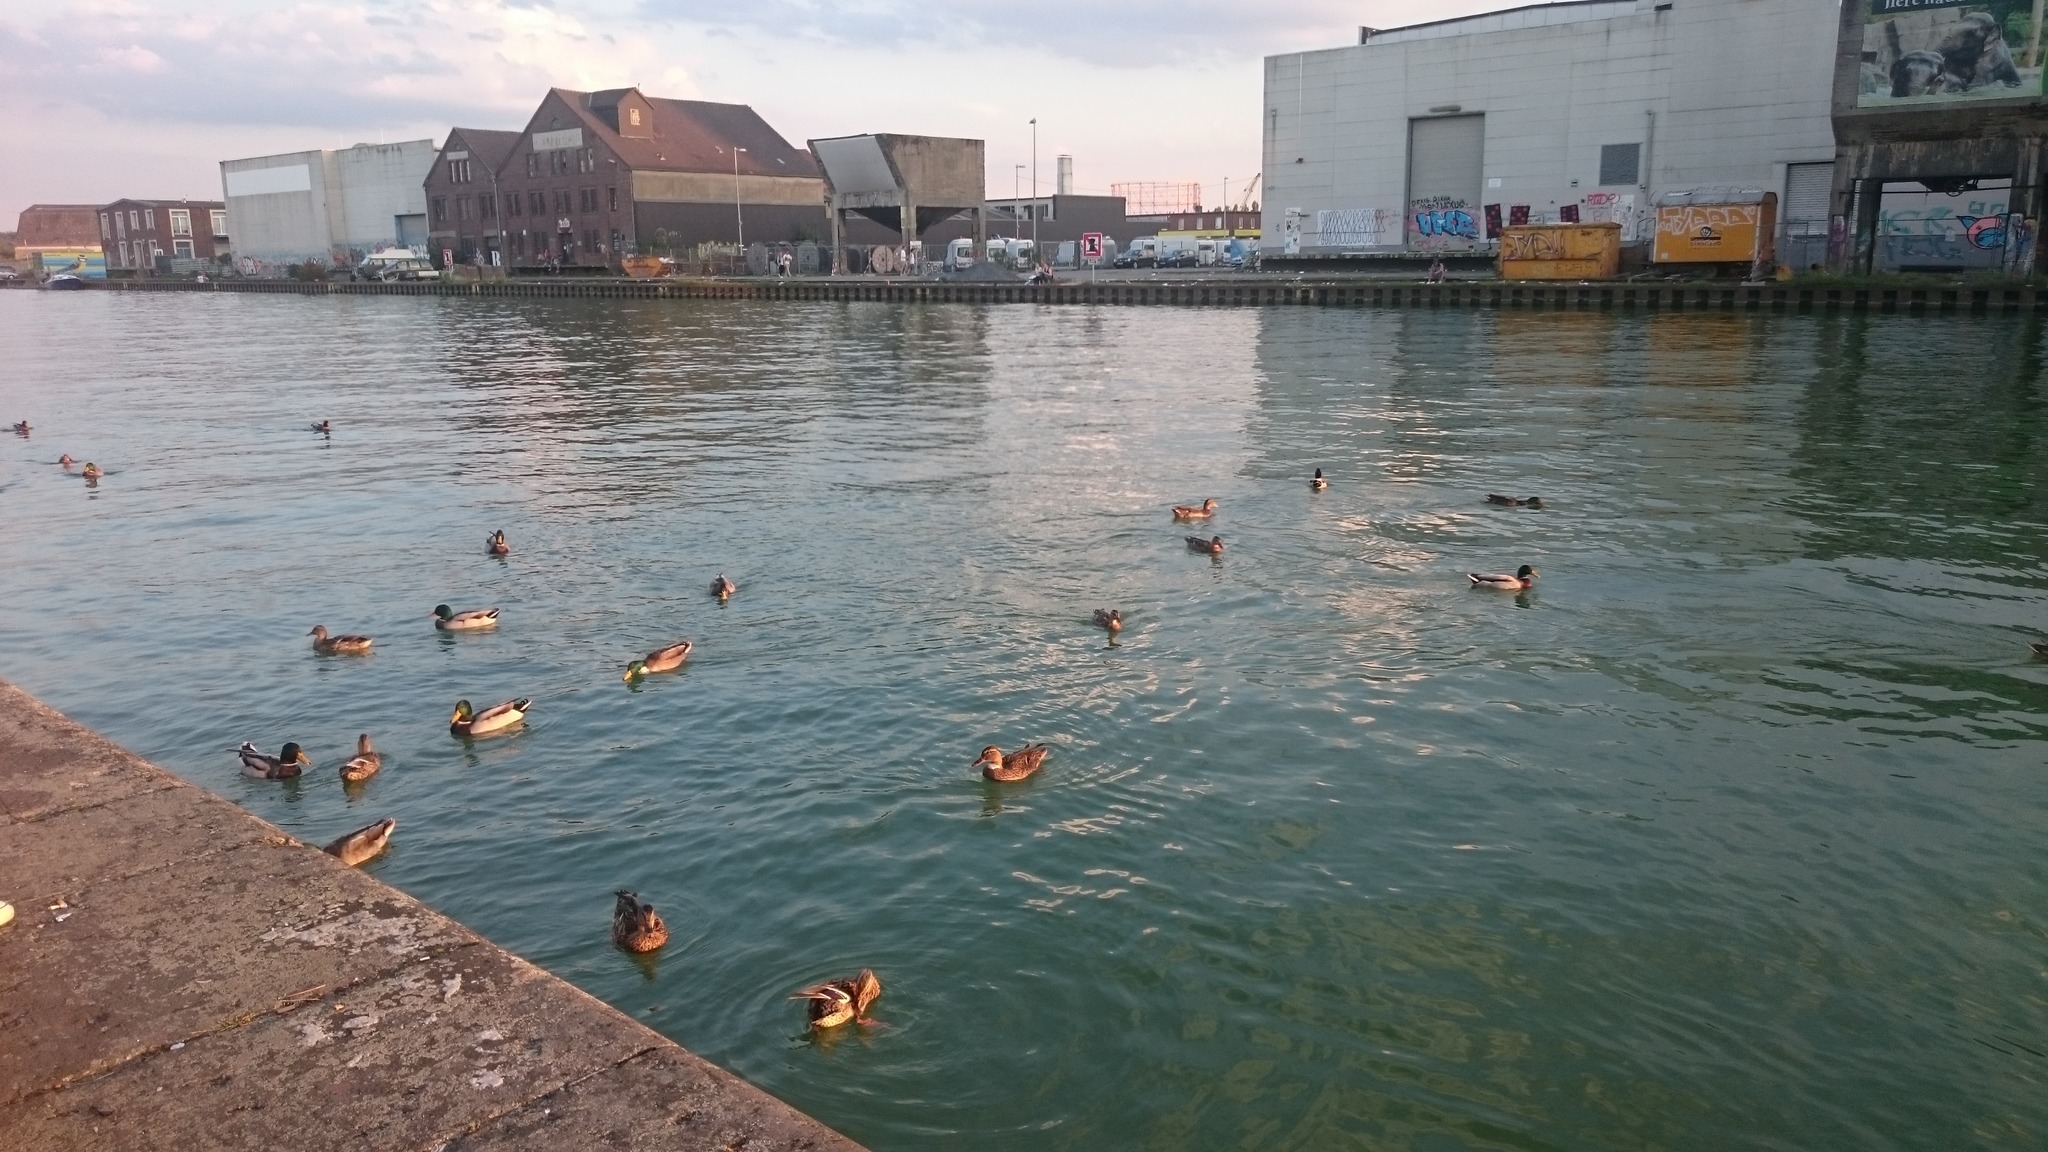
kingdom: Animalia
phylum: Chordata
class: Aves
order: Anseriformes
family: Anatidae
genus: Anas
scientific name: Anas platyrhynchos
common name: Mallard
